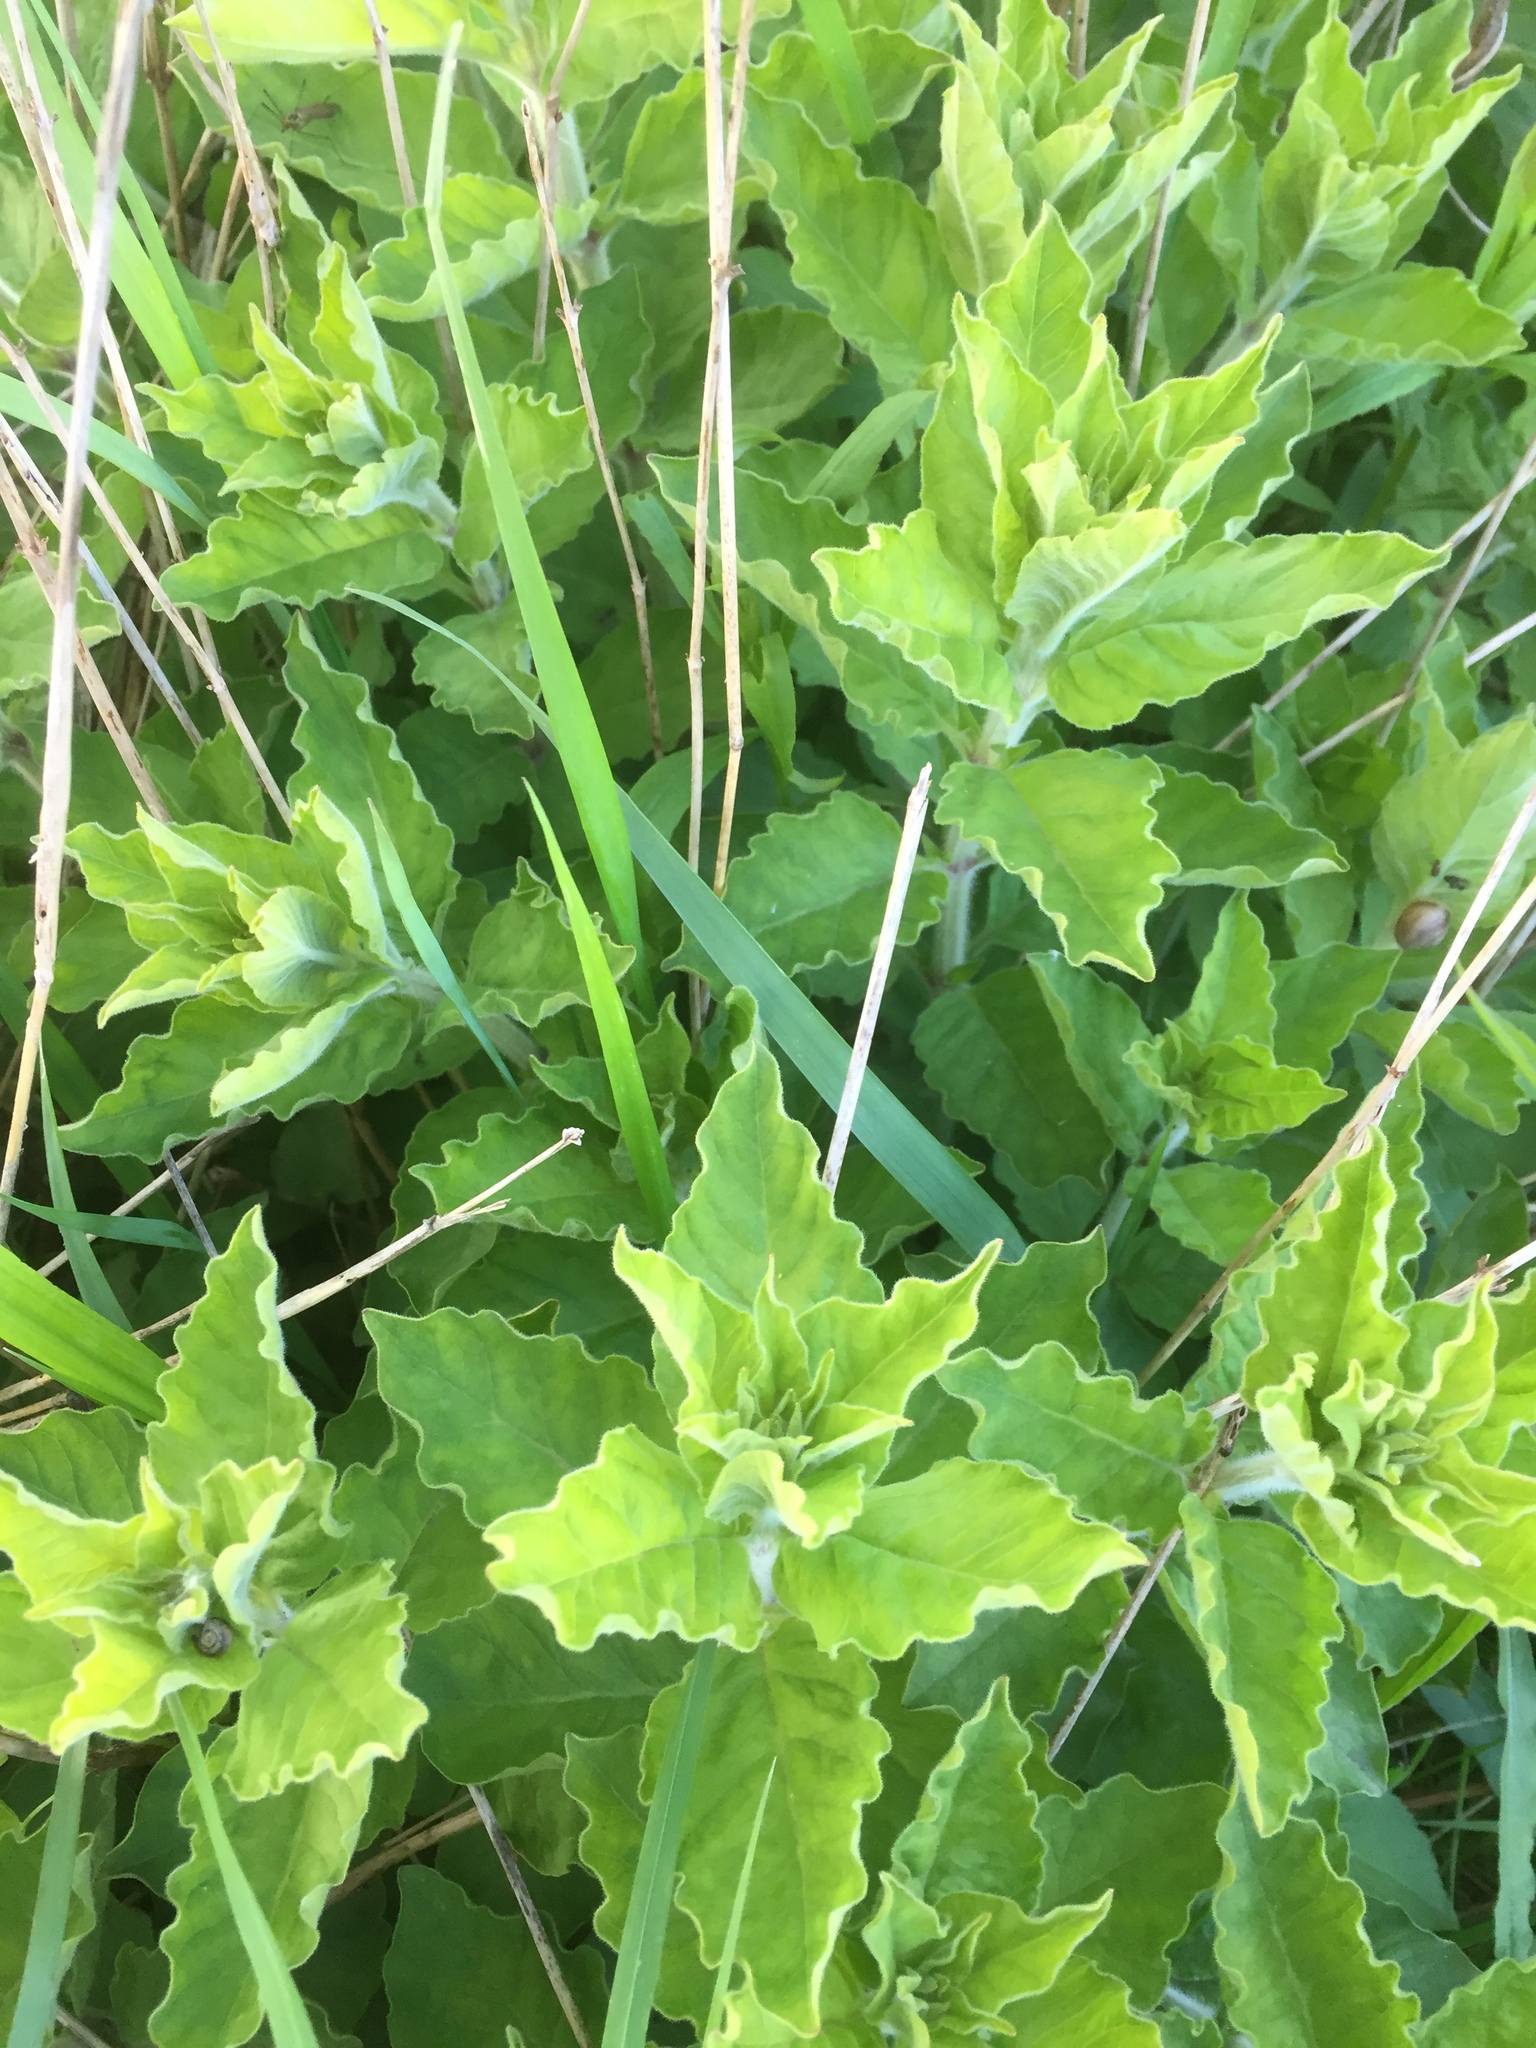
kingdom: Plantae
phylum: Tracheophyta
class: Magnoliopsida
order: Ericales
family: Primulaceae
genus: Lysimachia
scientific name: Lysimachia punctata
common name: Dotted loosestrife
